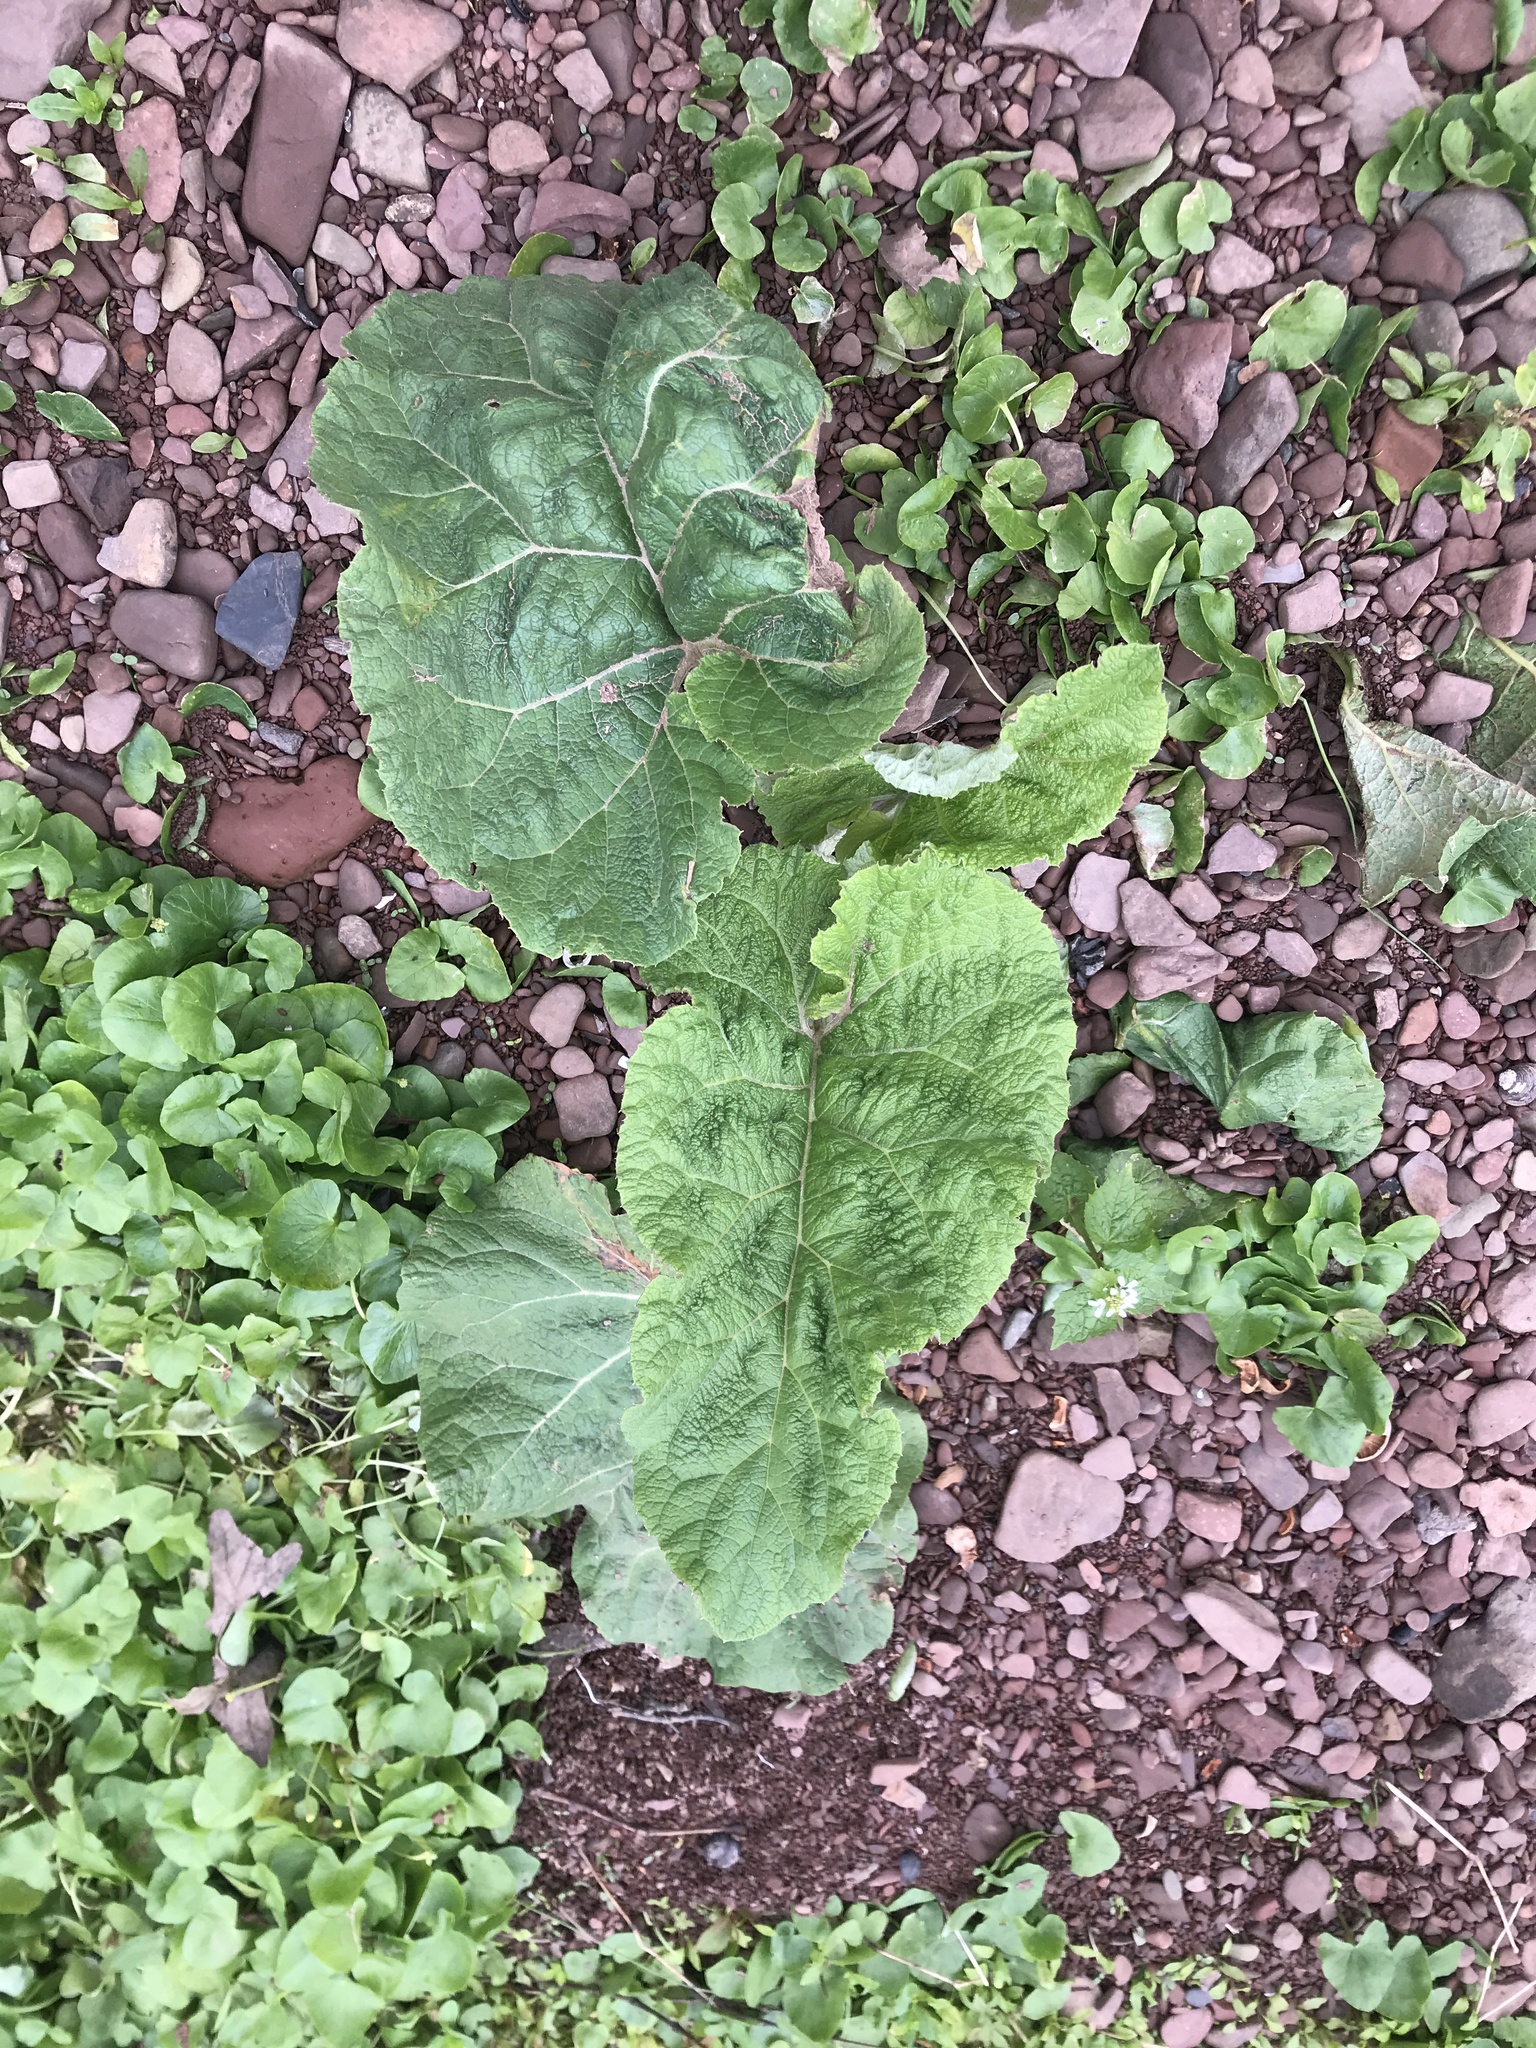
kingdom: Plantae
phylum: Tracheophyta
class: Magnoliopsida
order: Asterales
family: Asteraceae
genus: Arctium
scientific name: Arctium
